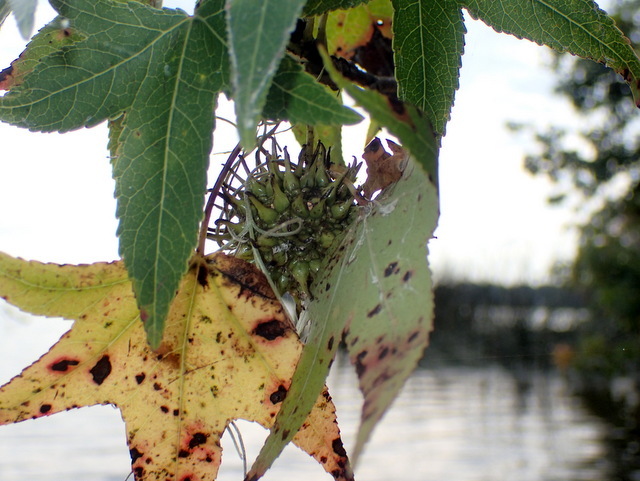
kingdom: Plantae
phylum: Tracheophyta
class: Magnoliopsida
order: Saxifragales
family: Altingiaceae
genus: Liquidambar
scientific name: Liquidambar styraciflua
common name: Sweet gum
